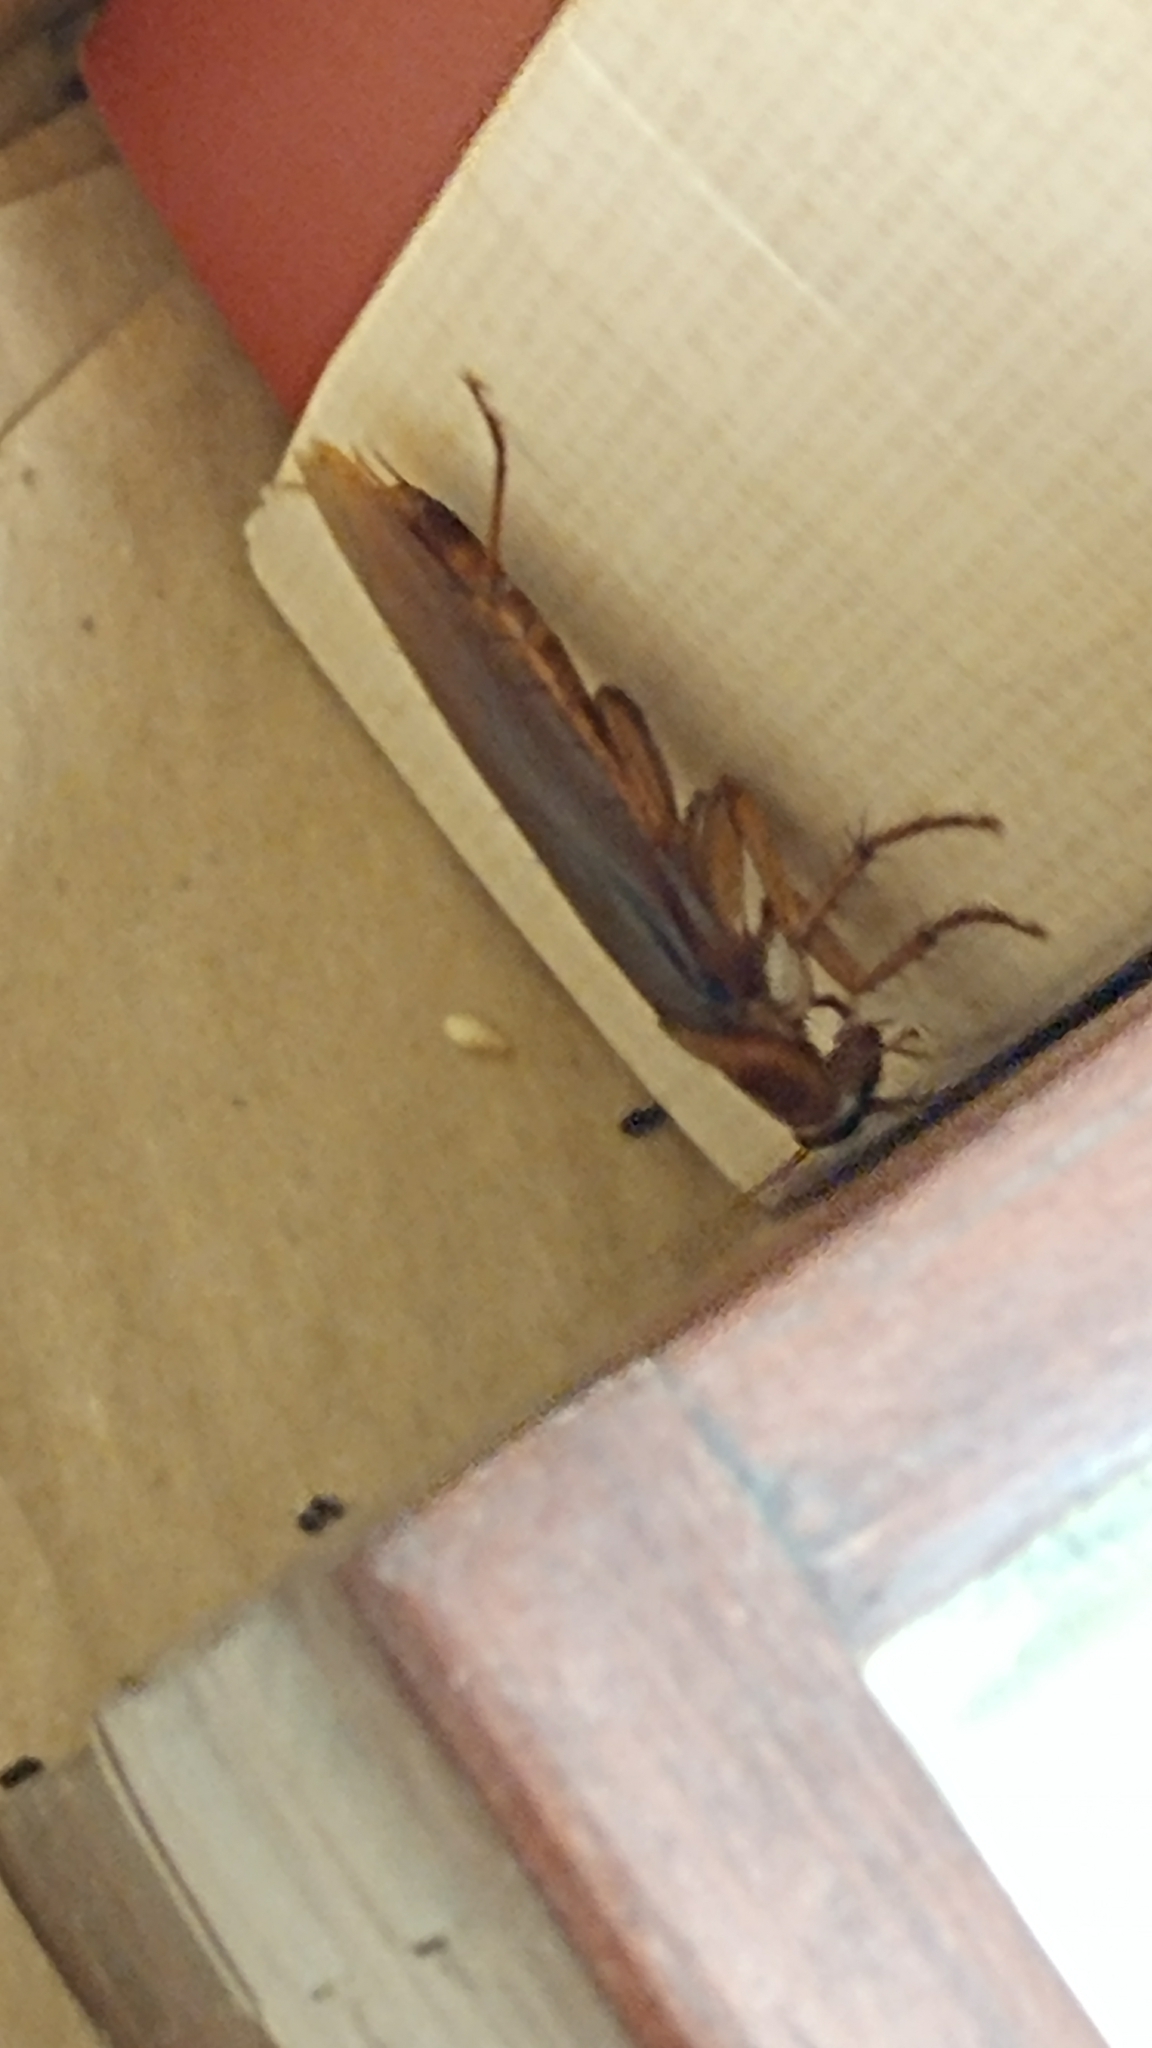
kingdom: Animalia
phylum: Arthropoda
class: Insecta
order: Blattodea
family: Blattidae
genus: Periplaneta
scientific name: Periplaneta americana
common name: American cockroach
